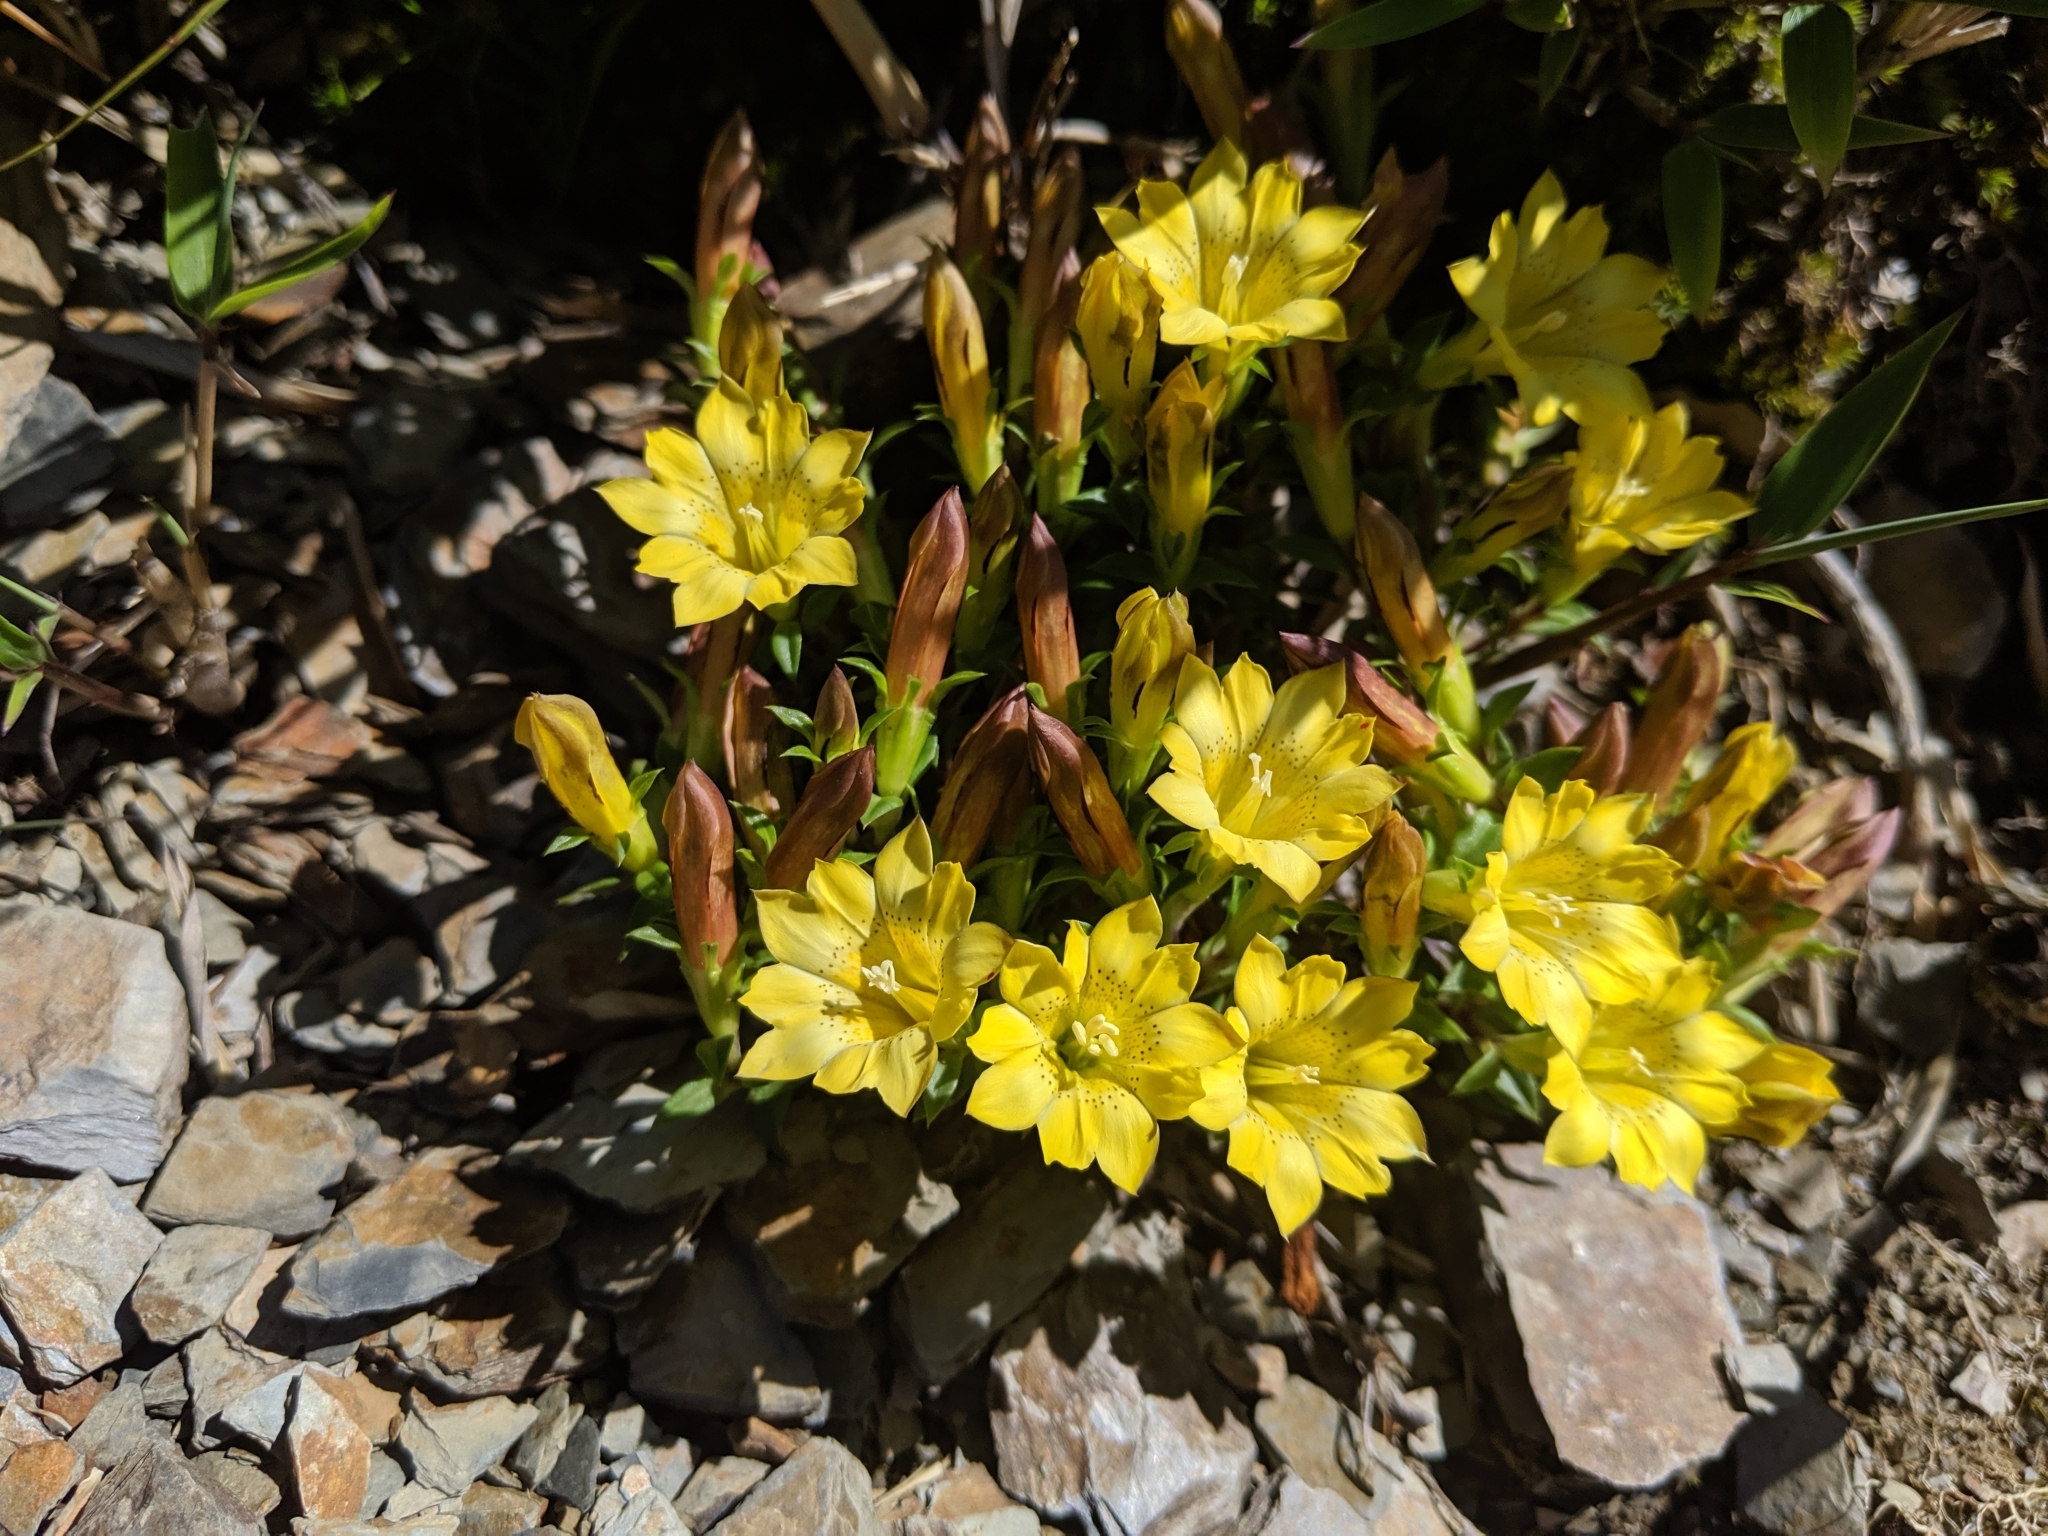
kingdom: Plantae
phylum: Tracheophyta
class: Magnoliopsida
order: Gentianales
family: Gentianaceae
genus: Gentiana
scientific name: Gentiana scabrida
